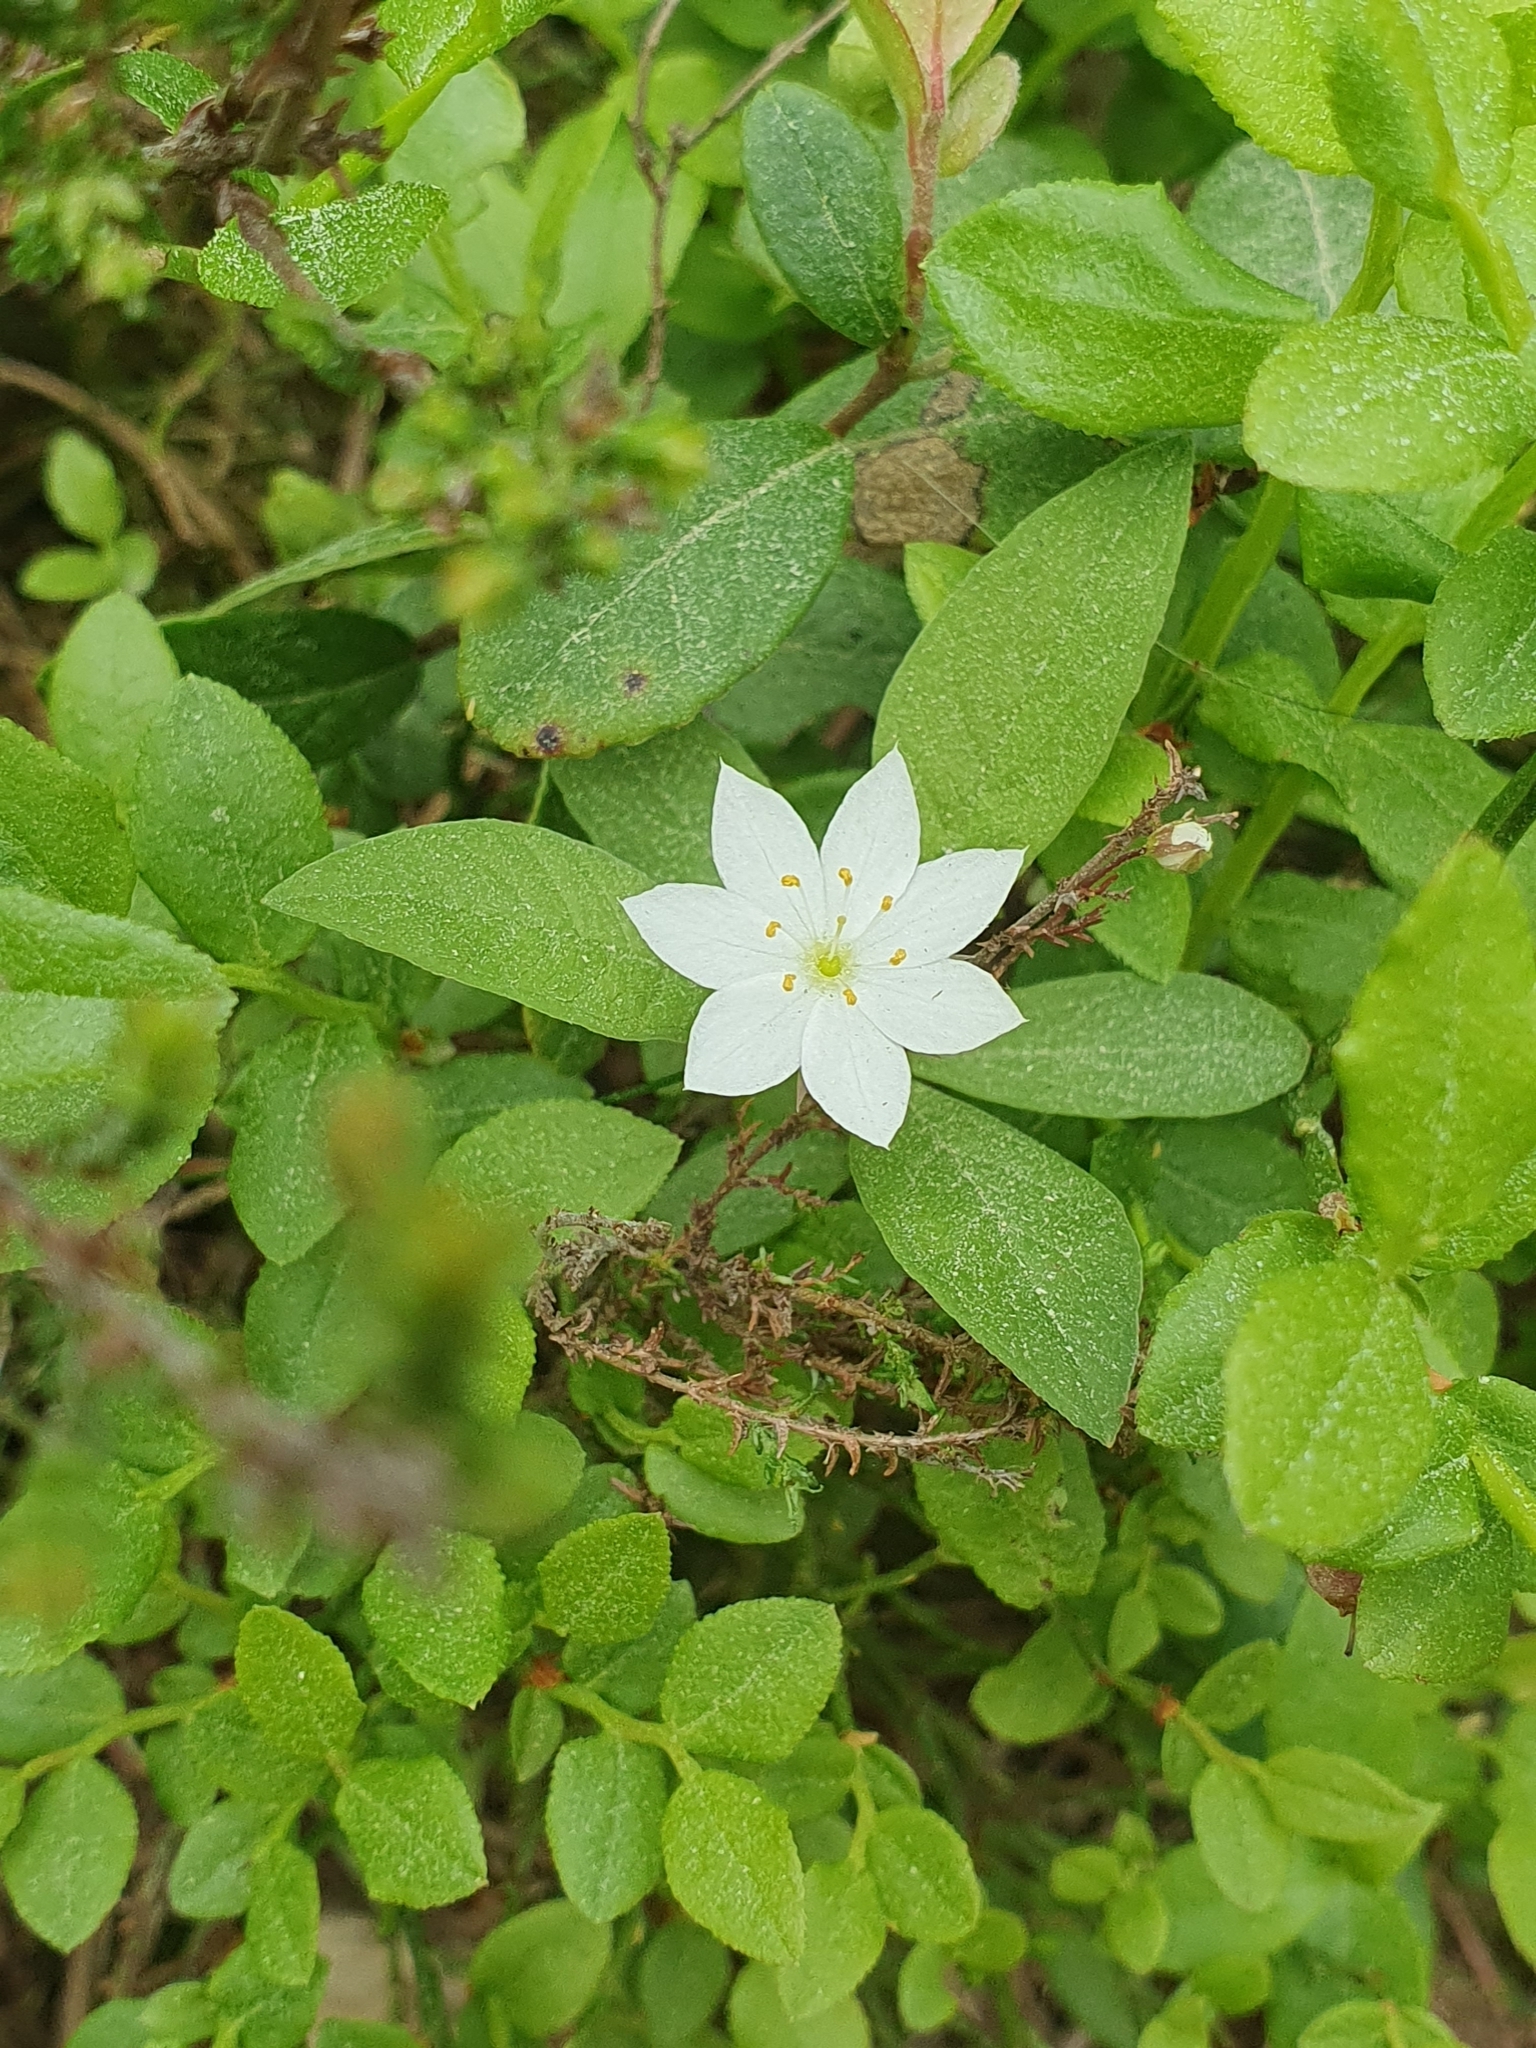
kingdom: Plantae
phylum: Tracheophyta
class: Magnoliopsida
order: Ericales
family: Primulaceae
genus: Lysimachia
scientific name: Lysimachia europaea
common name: Arctic starflower
